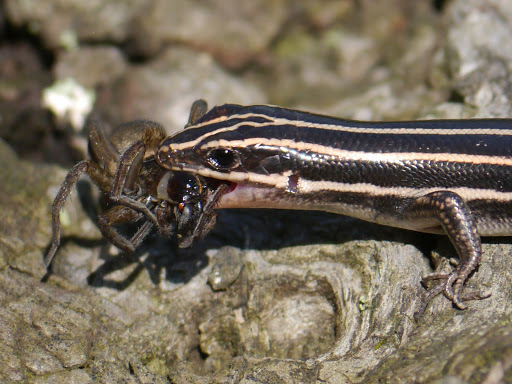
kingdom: Animalia
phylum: Chordata
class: Squamata
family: Scincidae
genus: Plestiodon
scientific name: Plestiodon fasciatus
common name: Five-lined skink
